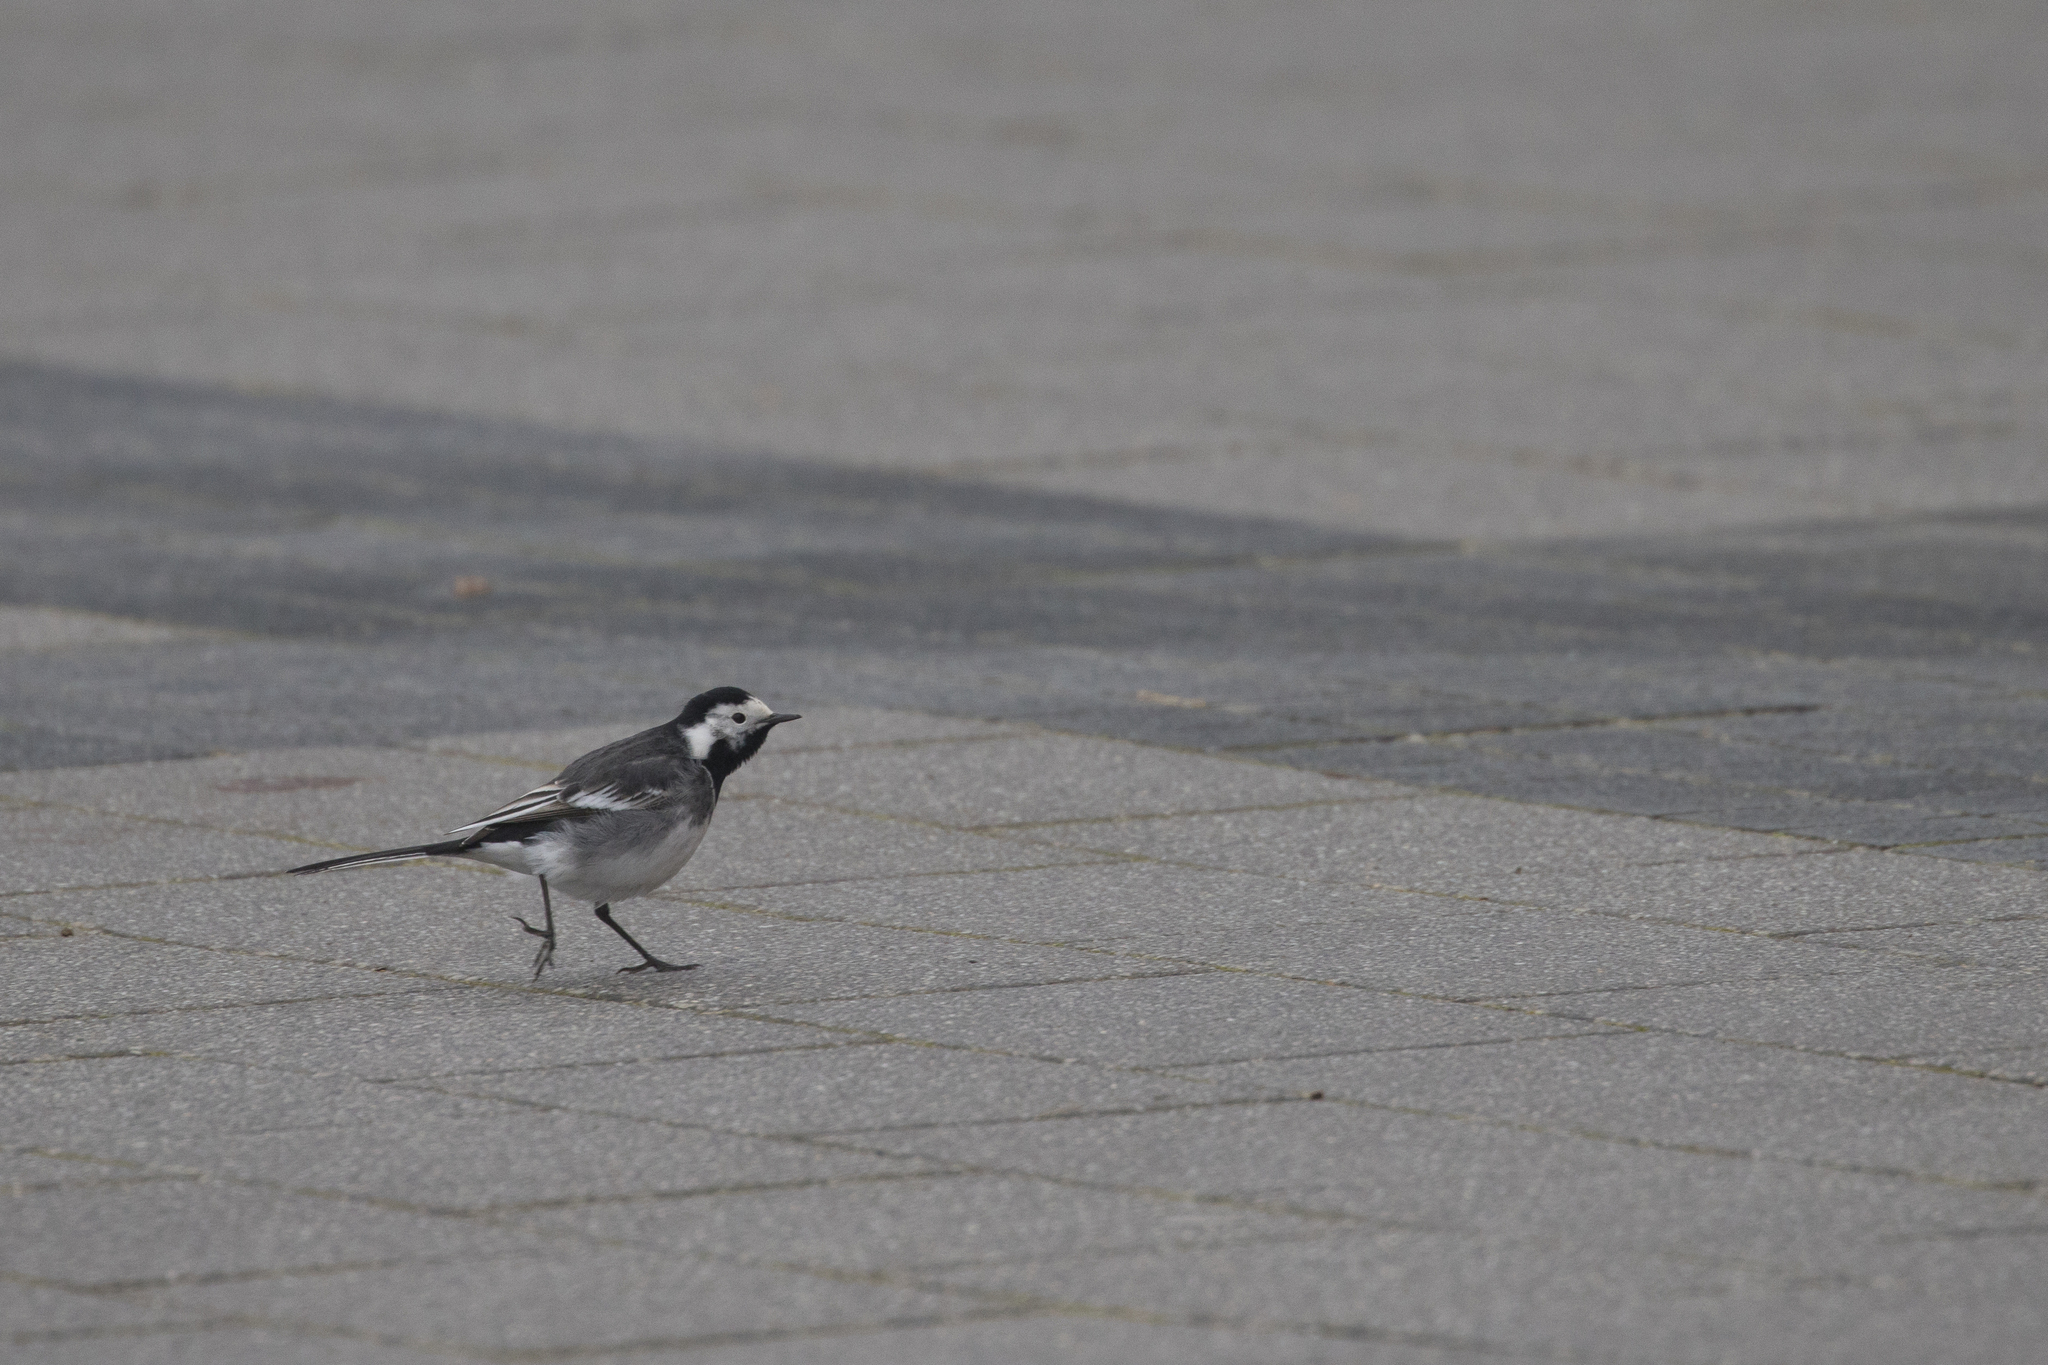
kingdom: Animalia
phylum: Chordata
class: Aves
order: Passeriformes
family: Motacillidae
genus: Motacilla
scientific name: Motacilla alba
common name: White wagtail
